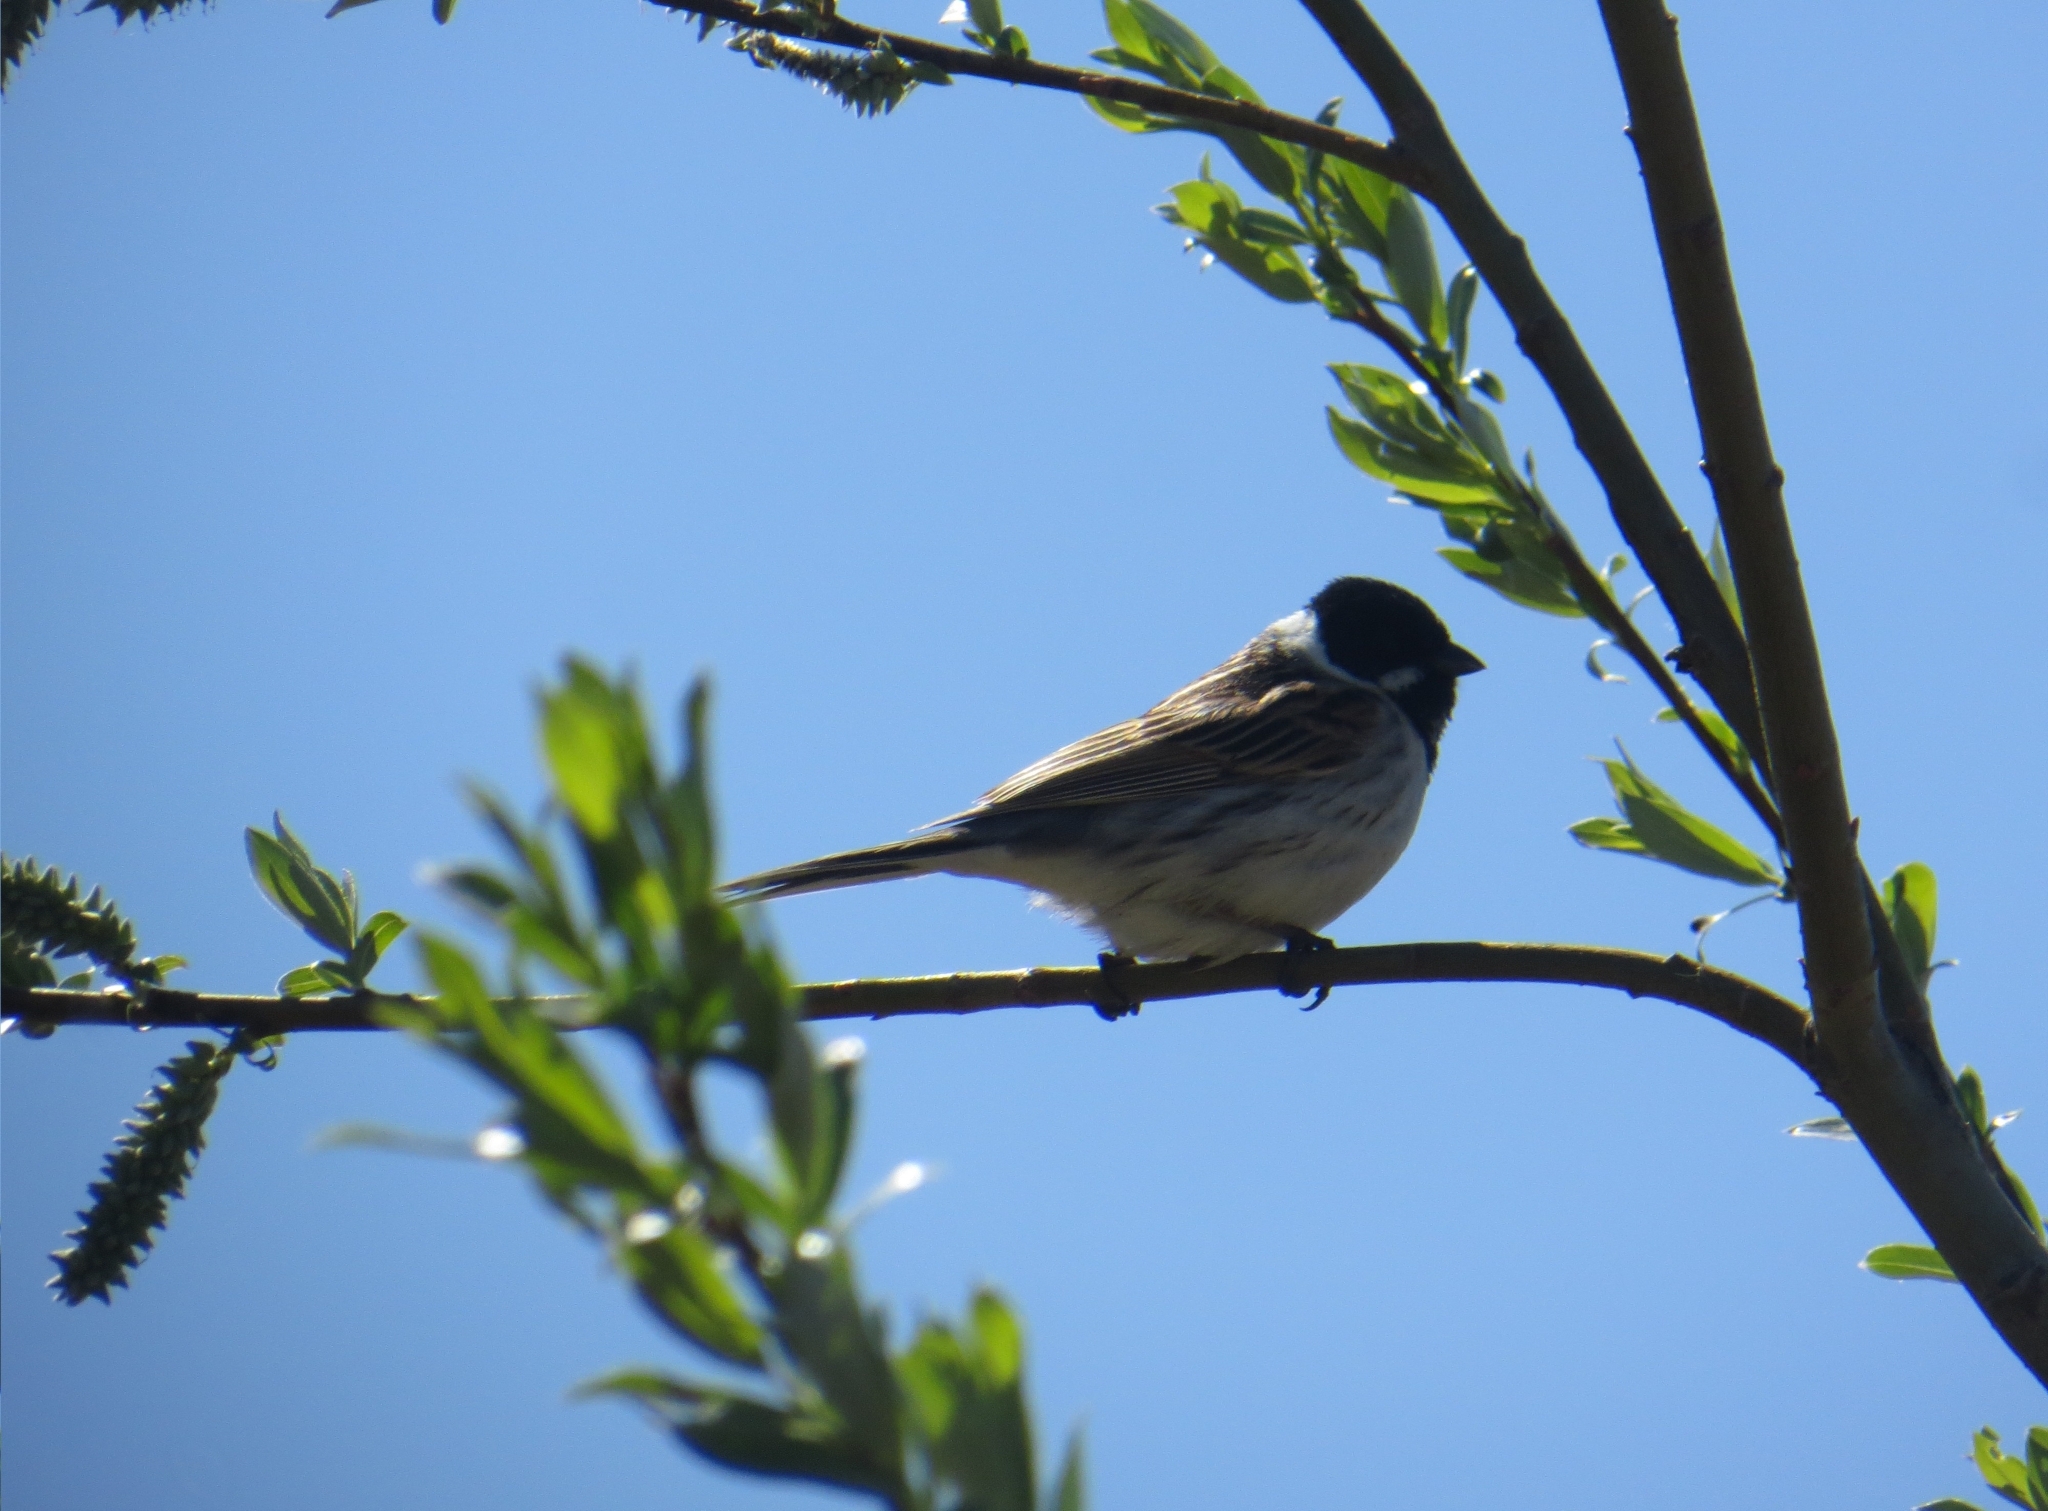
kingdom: Animalia
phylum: Chordata
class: Aves
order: Passeriformes
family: Emberizidae
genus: Emberiza
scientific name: Emberiza schoeniclus
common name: Reed bunting
